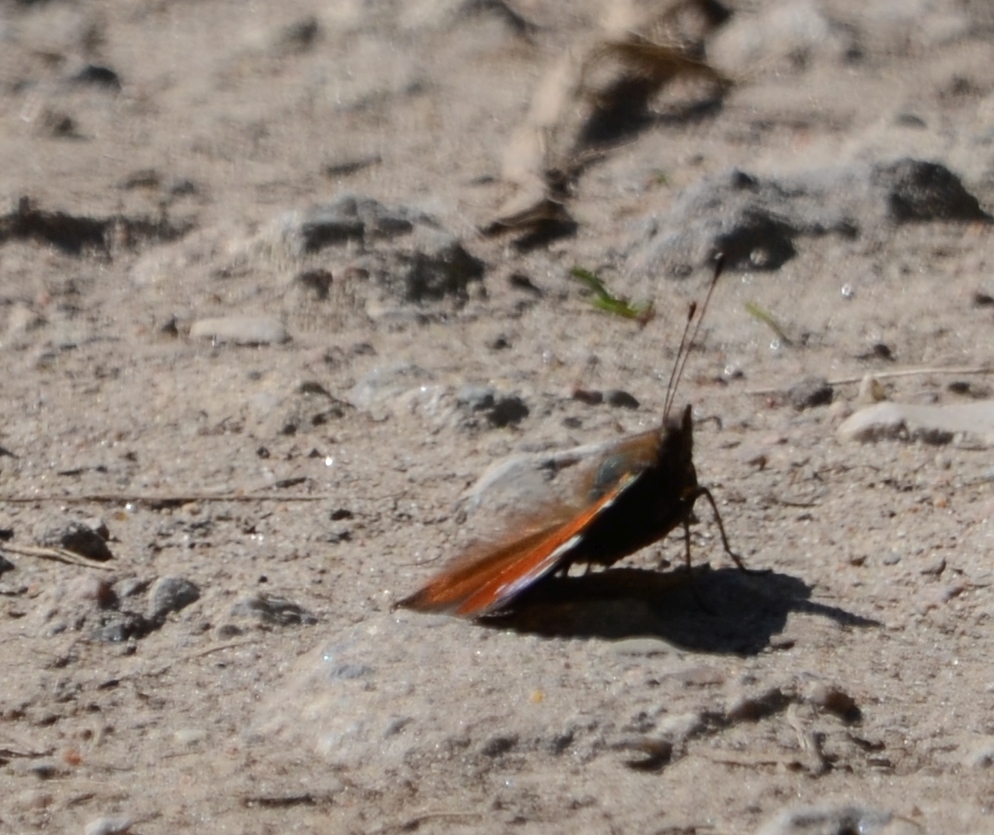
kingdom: Animalia
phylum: Arthropoda
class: Insecta
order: Lepidoptera
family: Nymphalidae
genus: Aglais
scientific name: Aglais io
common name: Peacock
